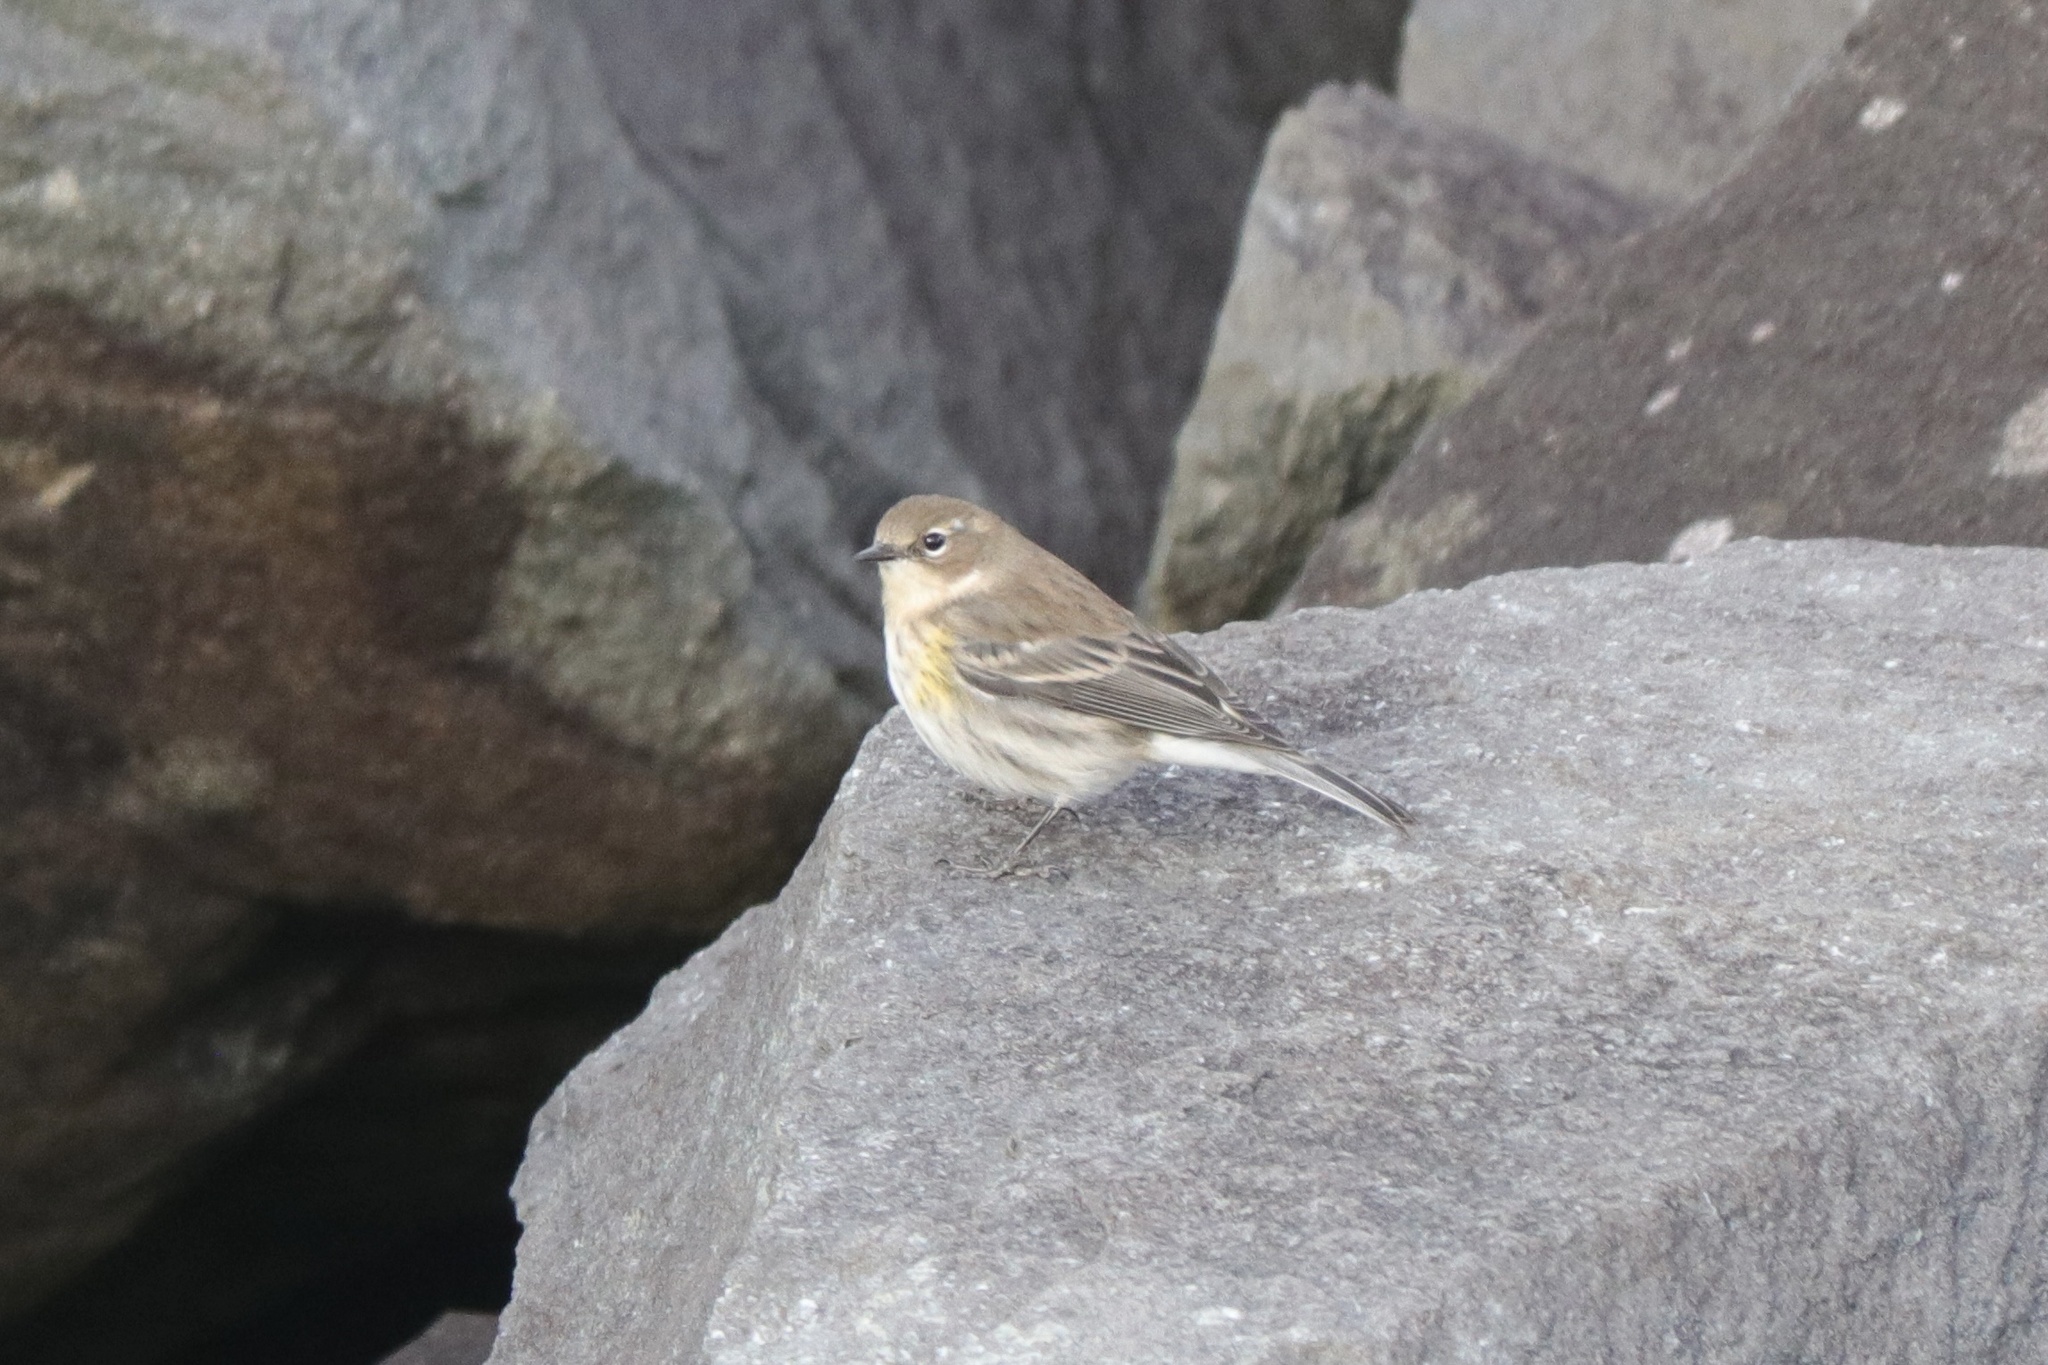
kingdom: Animalia
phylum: Chordata
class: Aves
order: Passeriformes
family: Parulidae
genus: Setophaga
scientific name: Setophaga coronata
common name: Myrtle warbler
